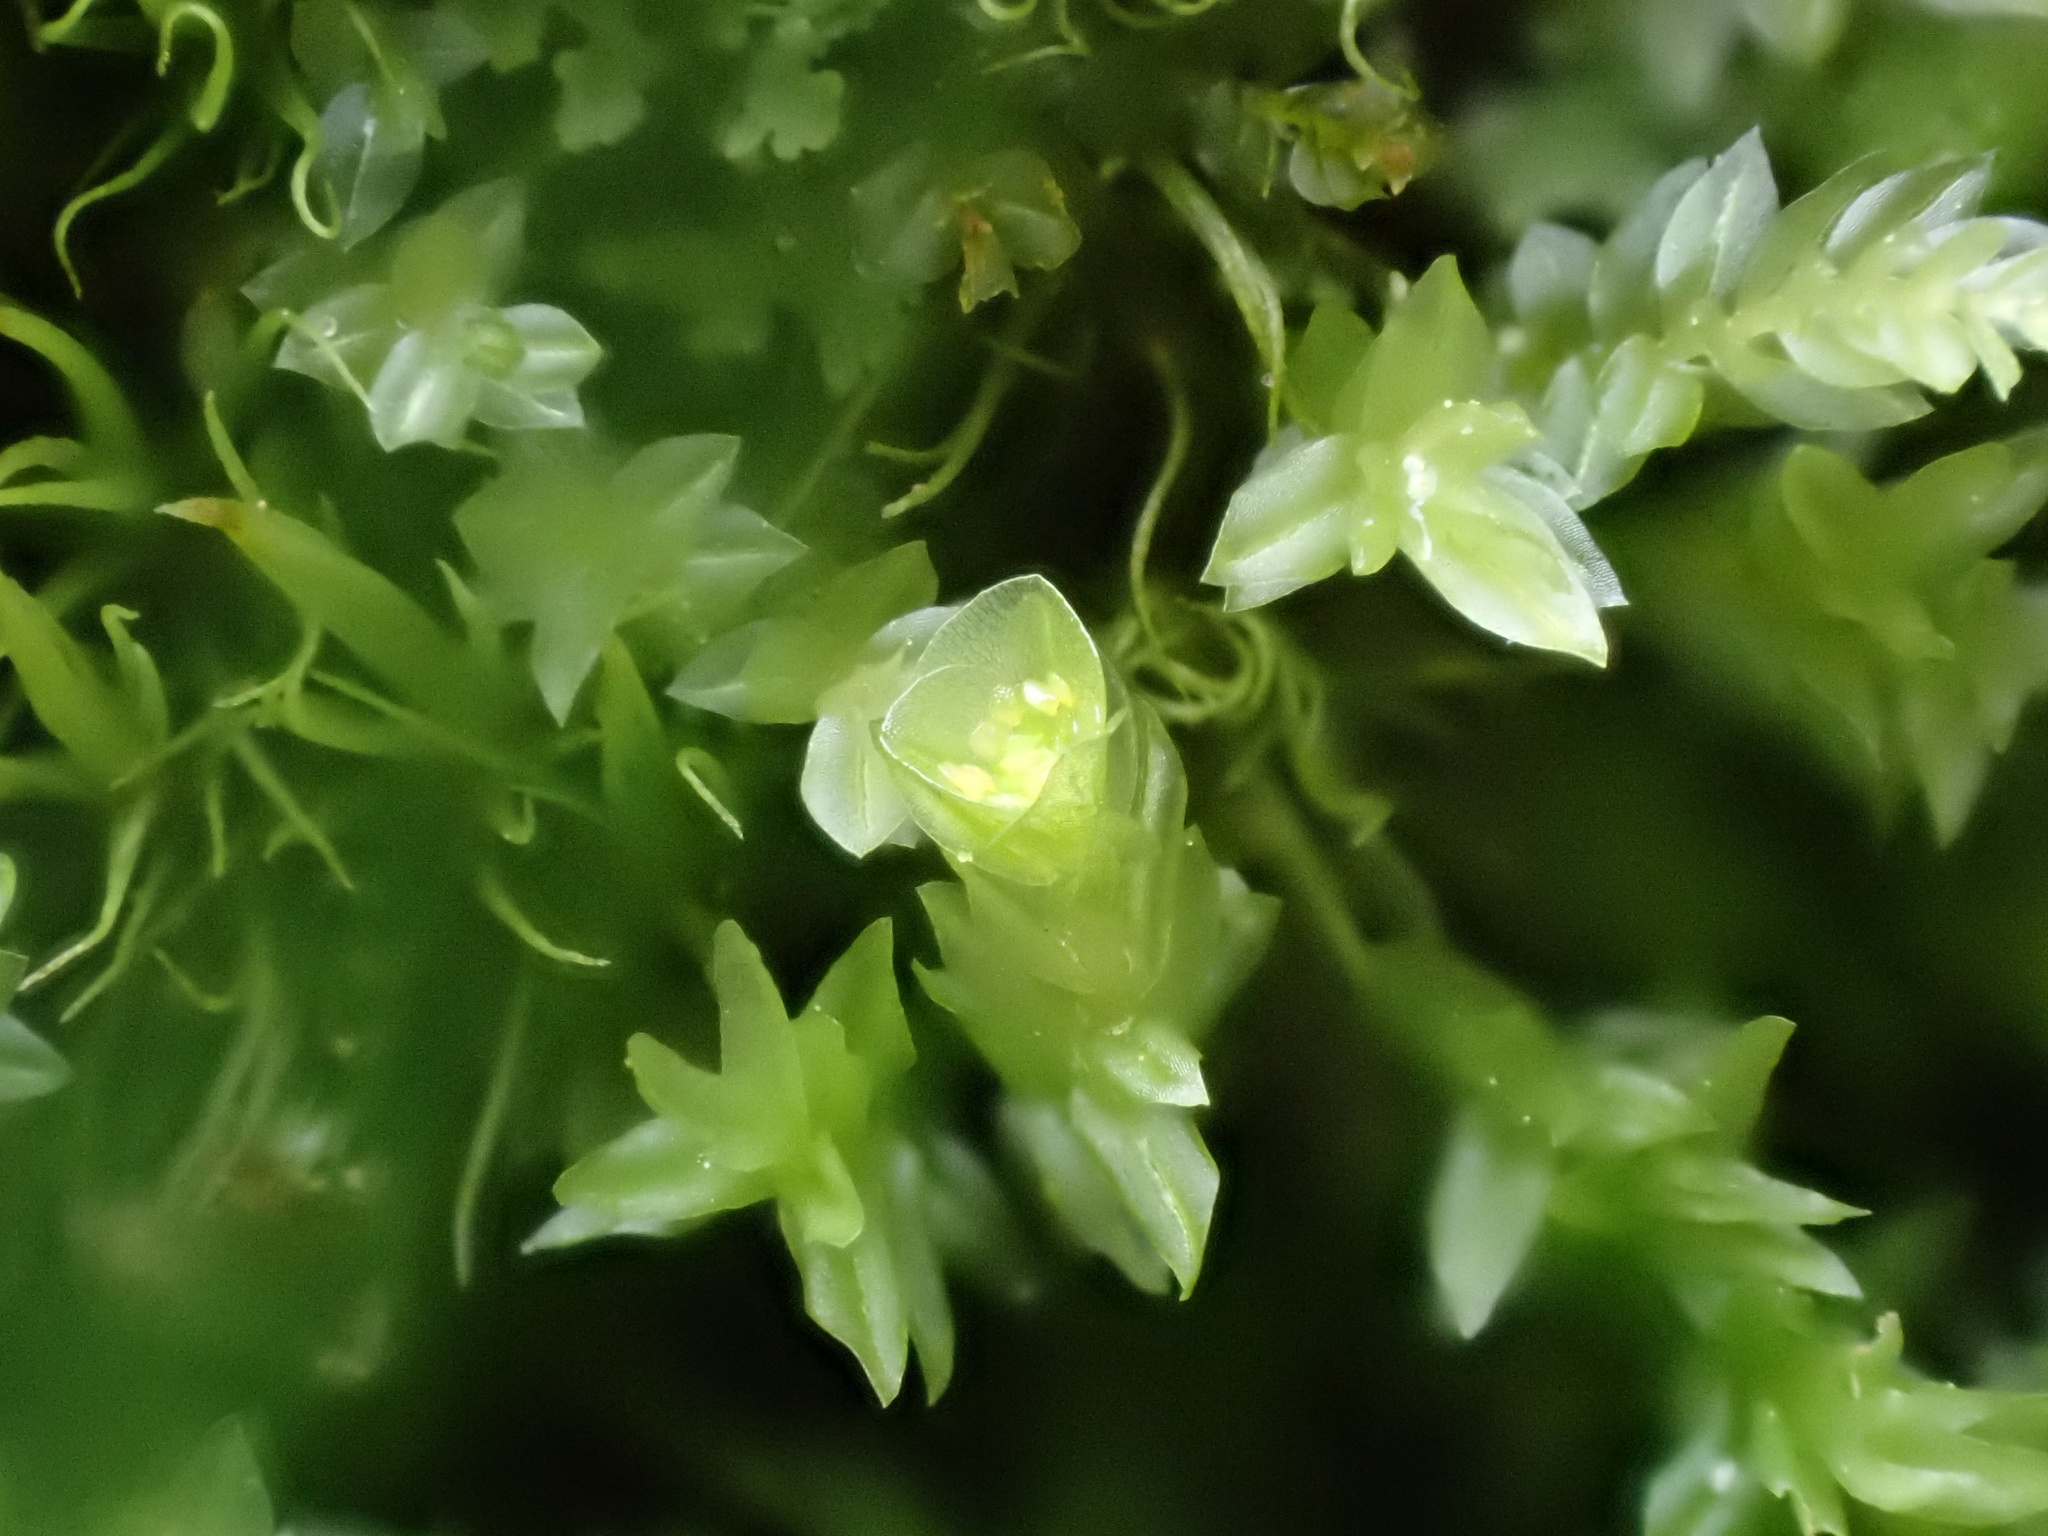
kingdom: Plantae
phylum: Bryophyta
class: Polytrichopsida
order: Tetraphidales
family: Tetraphidaceae
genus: Tetraphis
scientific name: Tetraphis pellucida
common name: Common four-toothed moss
